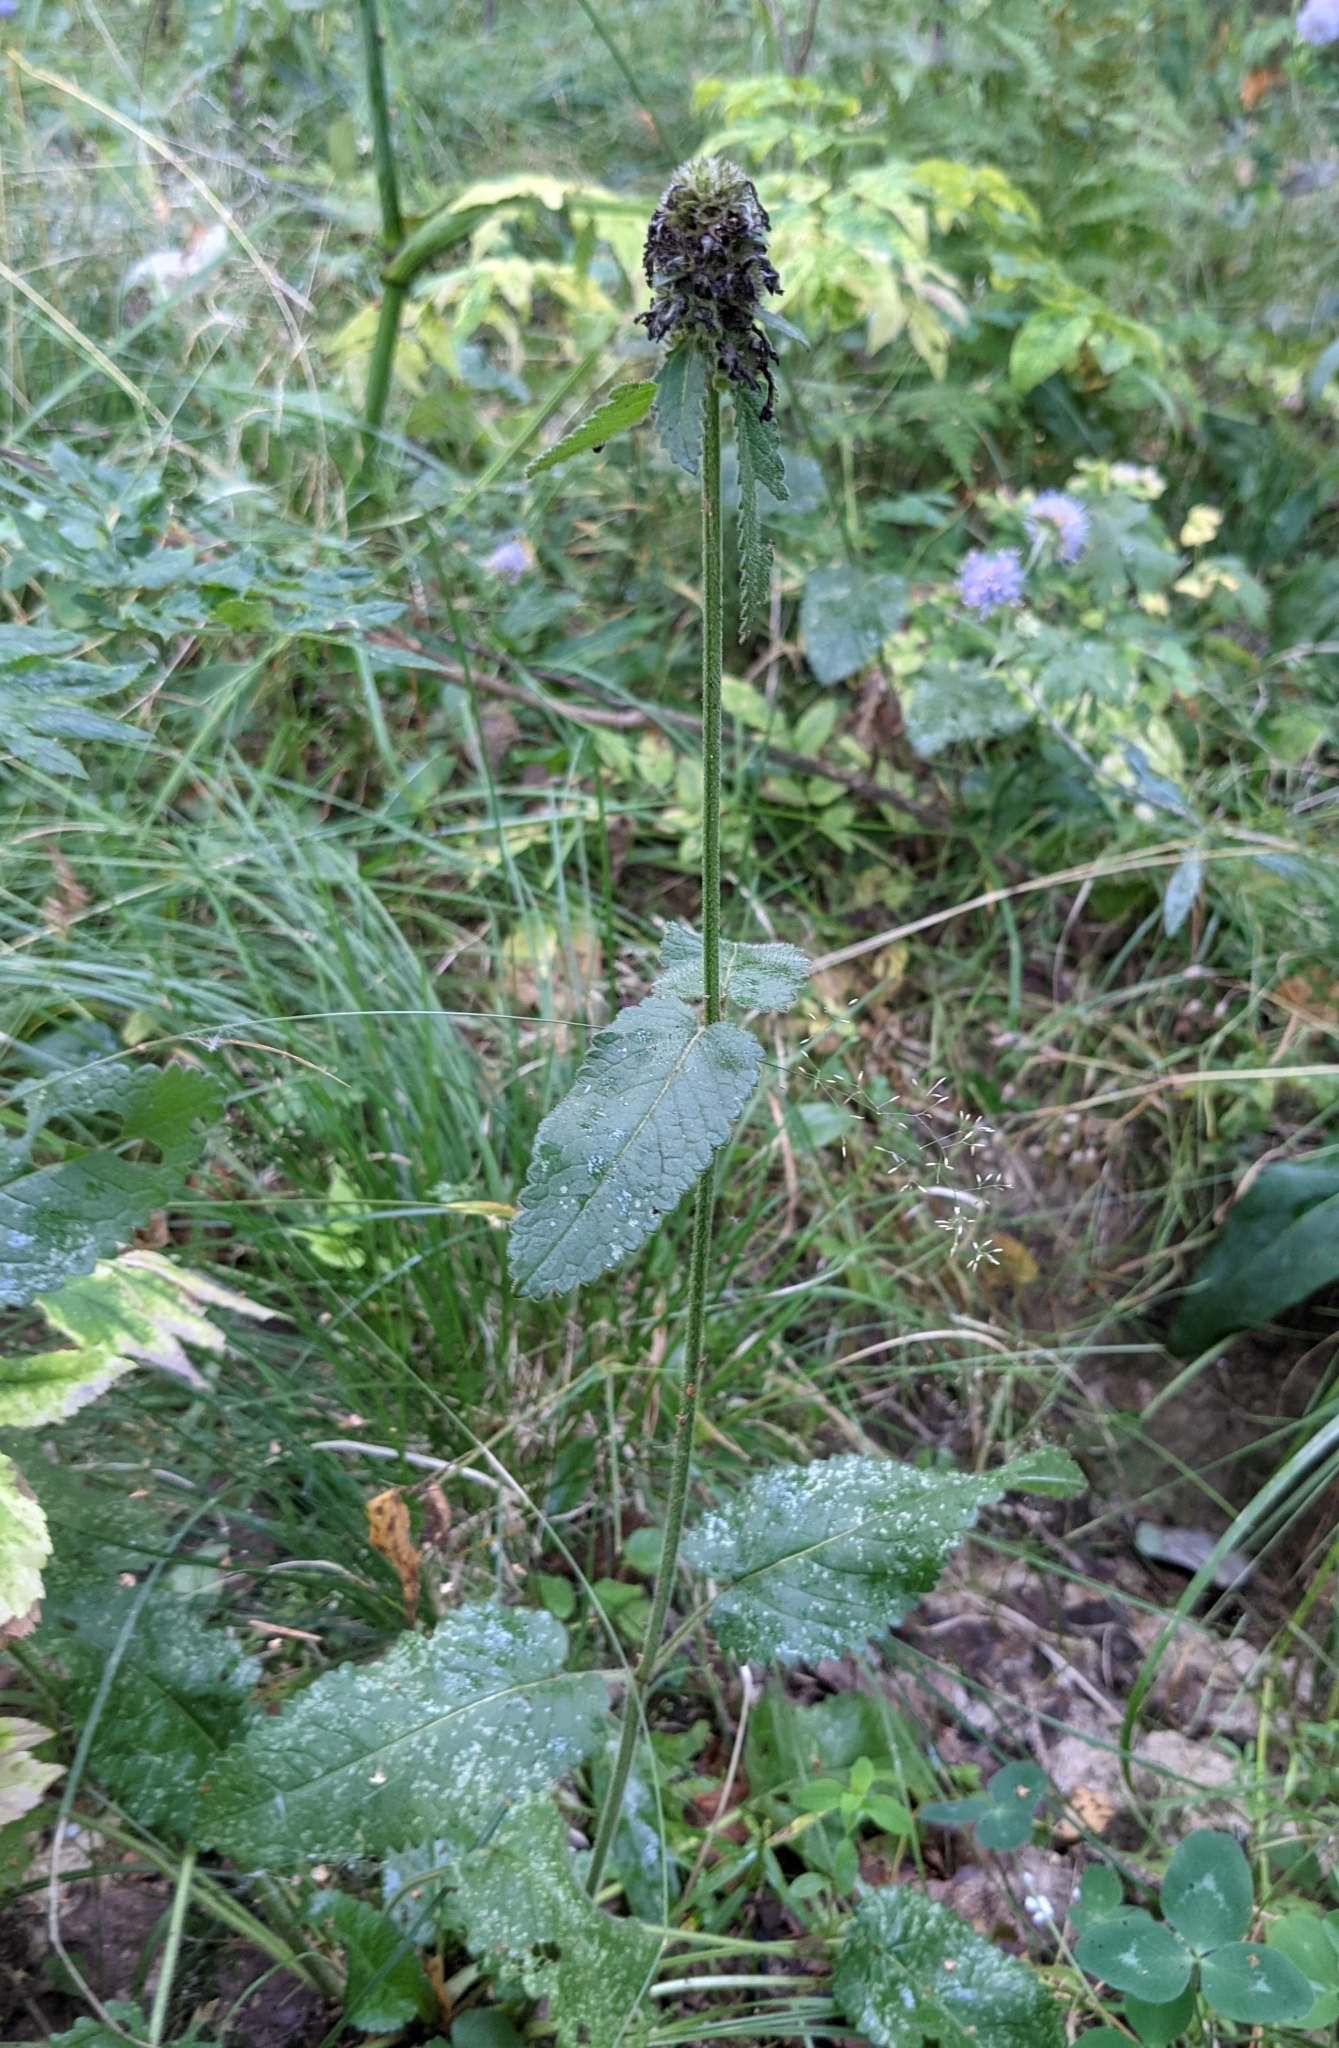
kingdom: Plantae
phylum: Tracheophyta
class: Magnoliopsida
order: Lamiales
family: Lamiaceae
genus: Betonica
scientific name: Betonica officinalis
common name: Bishop's-wort
